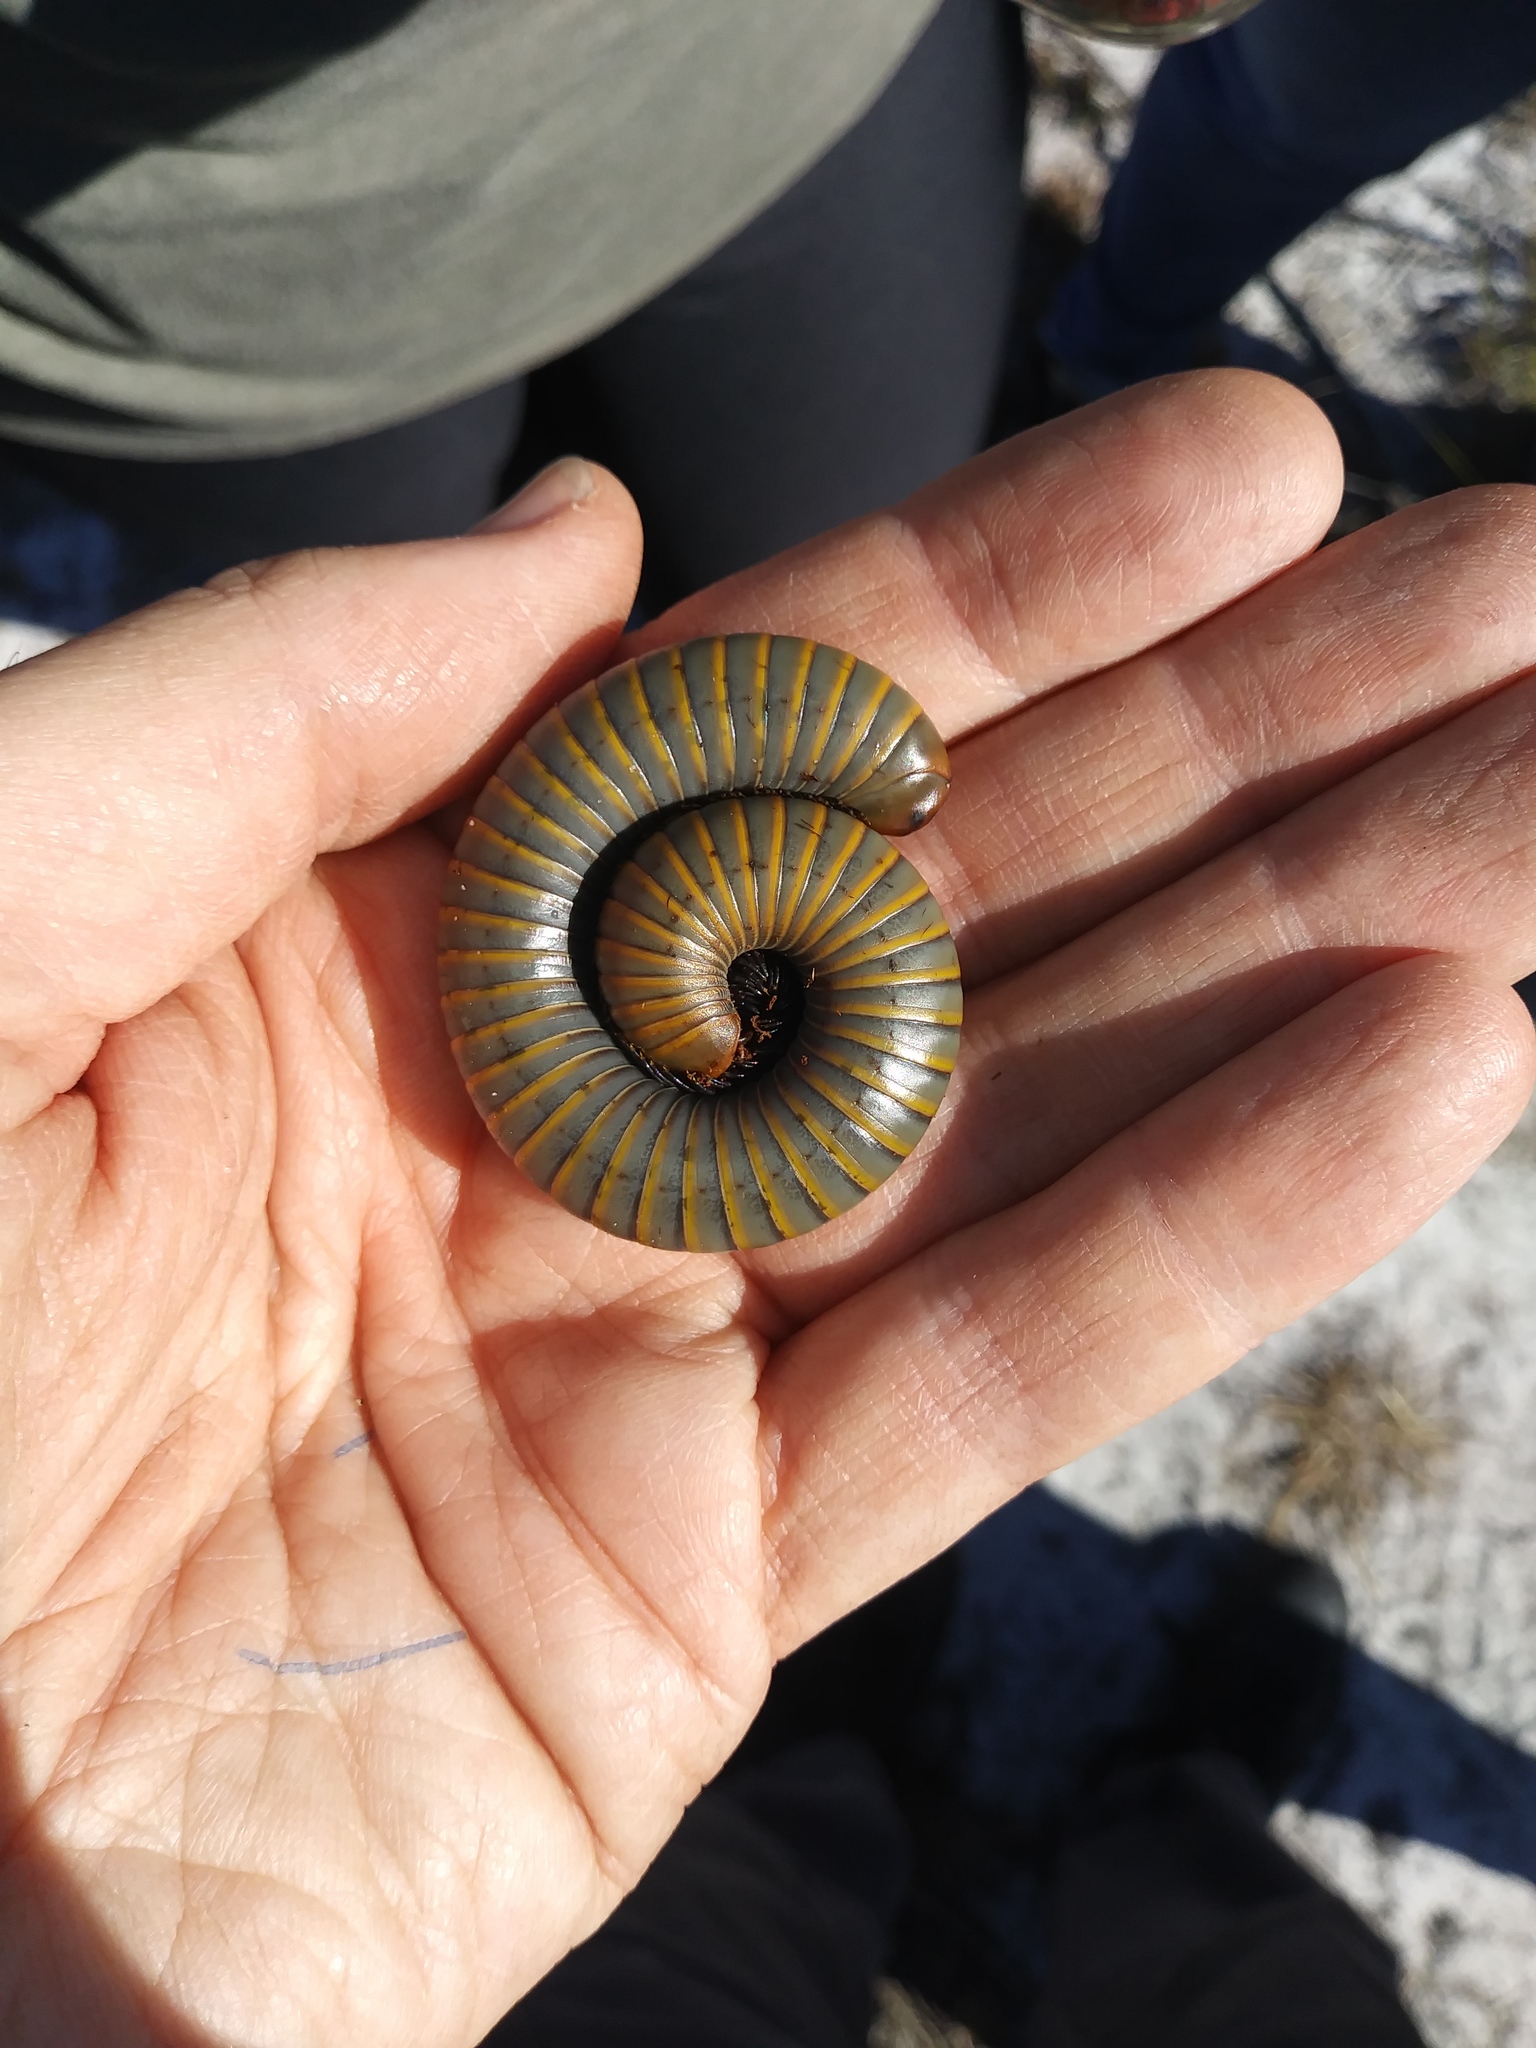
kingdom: Animalia
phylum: Arthropoda
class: Diplopoda
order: Spirobolida
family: Spirobolidae
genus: Narceus
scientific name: Narceus gordanus
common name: Grayish-green millipede
